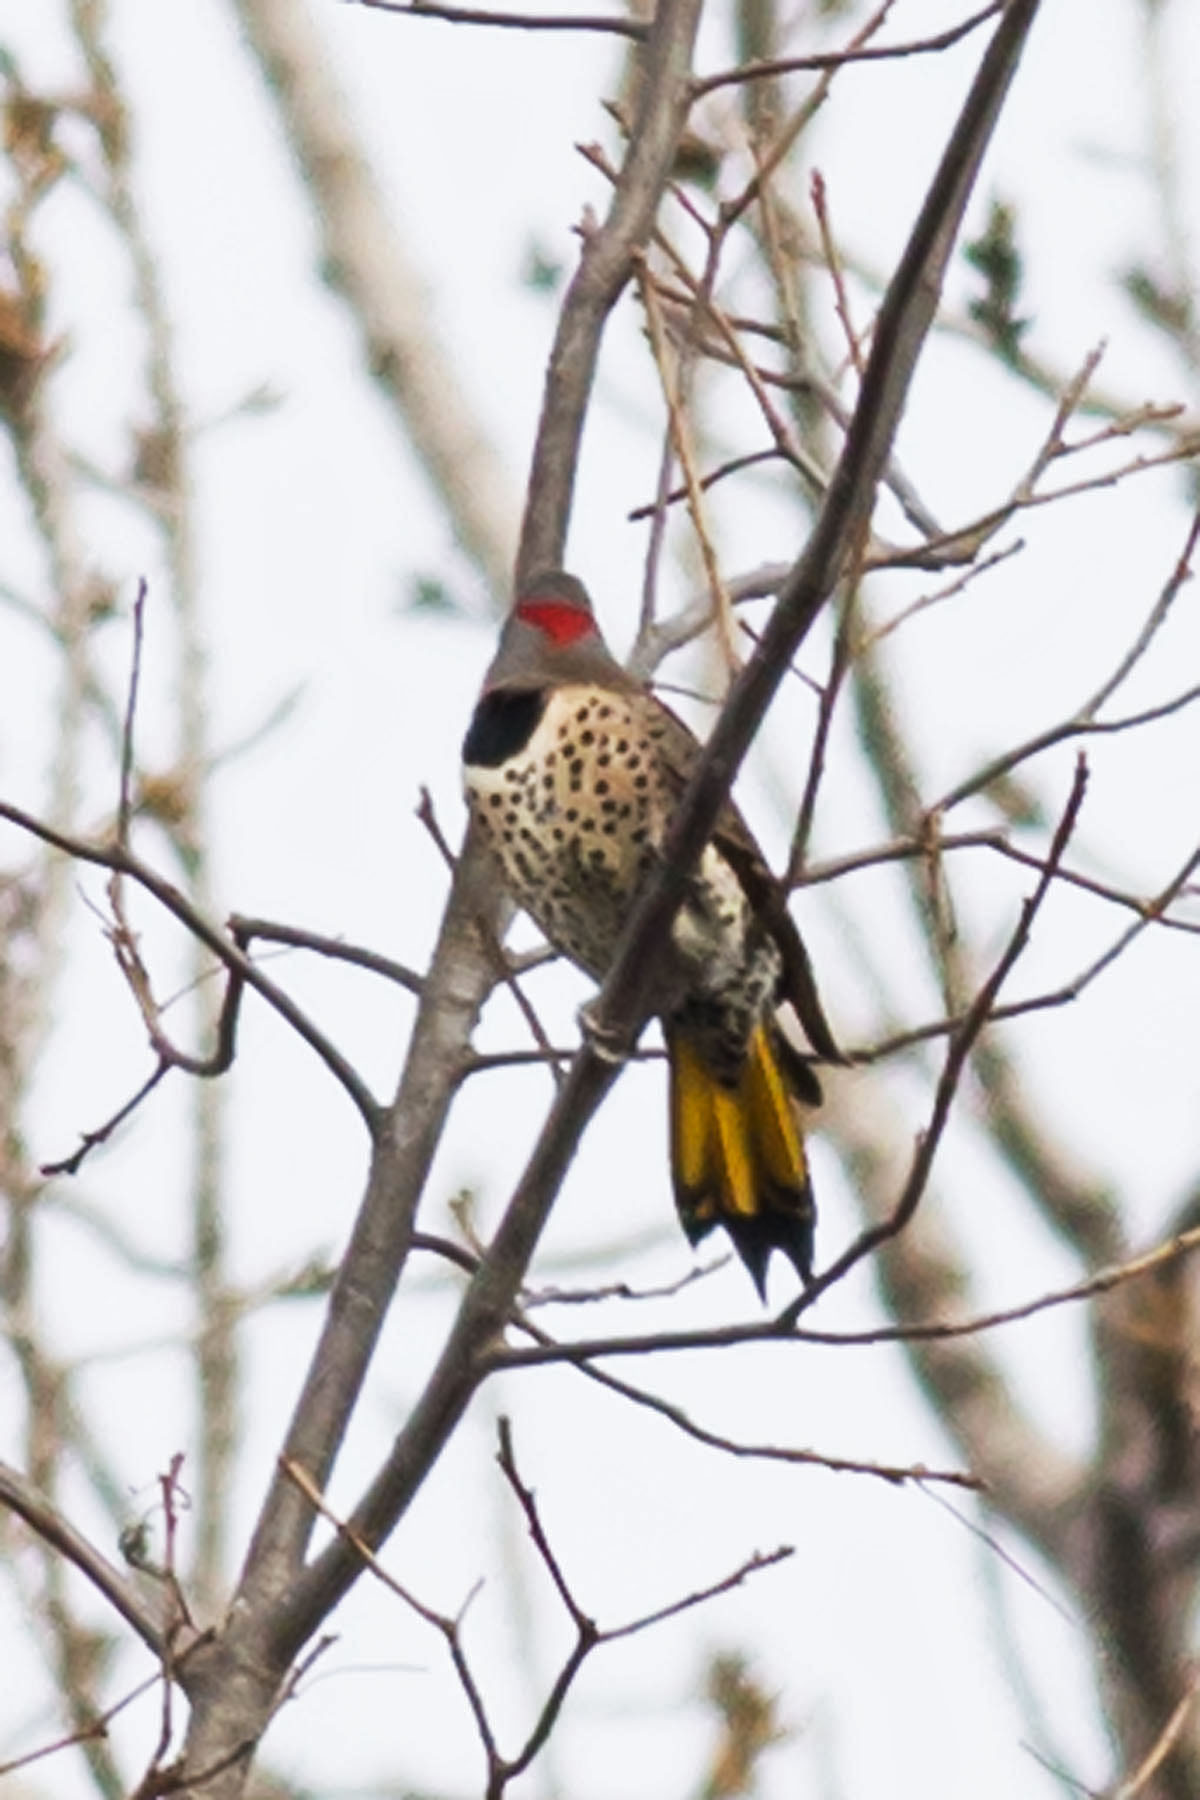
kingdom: Animalia
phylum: Chordata
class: Aves
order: Piciformes
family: Picidae
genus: Colaptes
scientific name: Colaptes auratus
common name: Northern flicker
